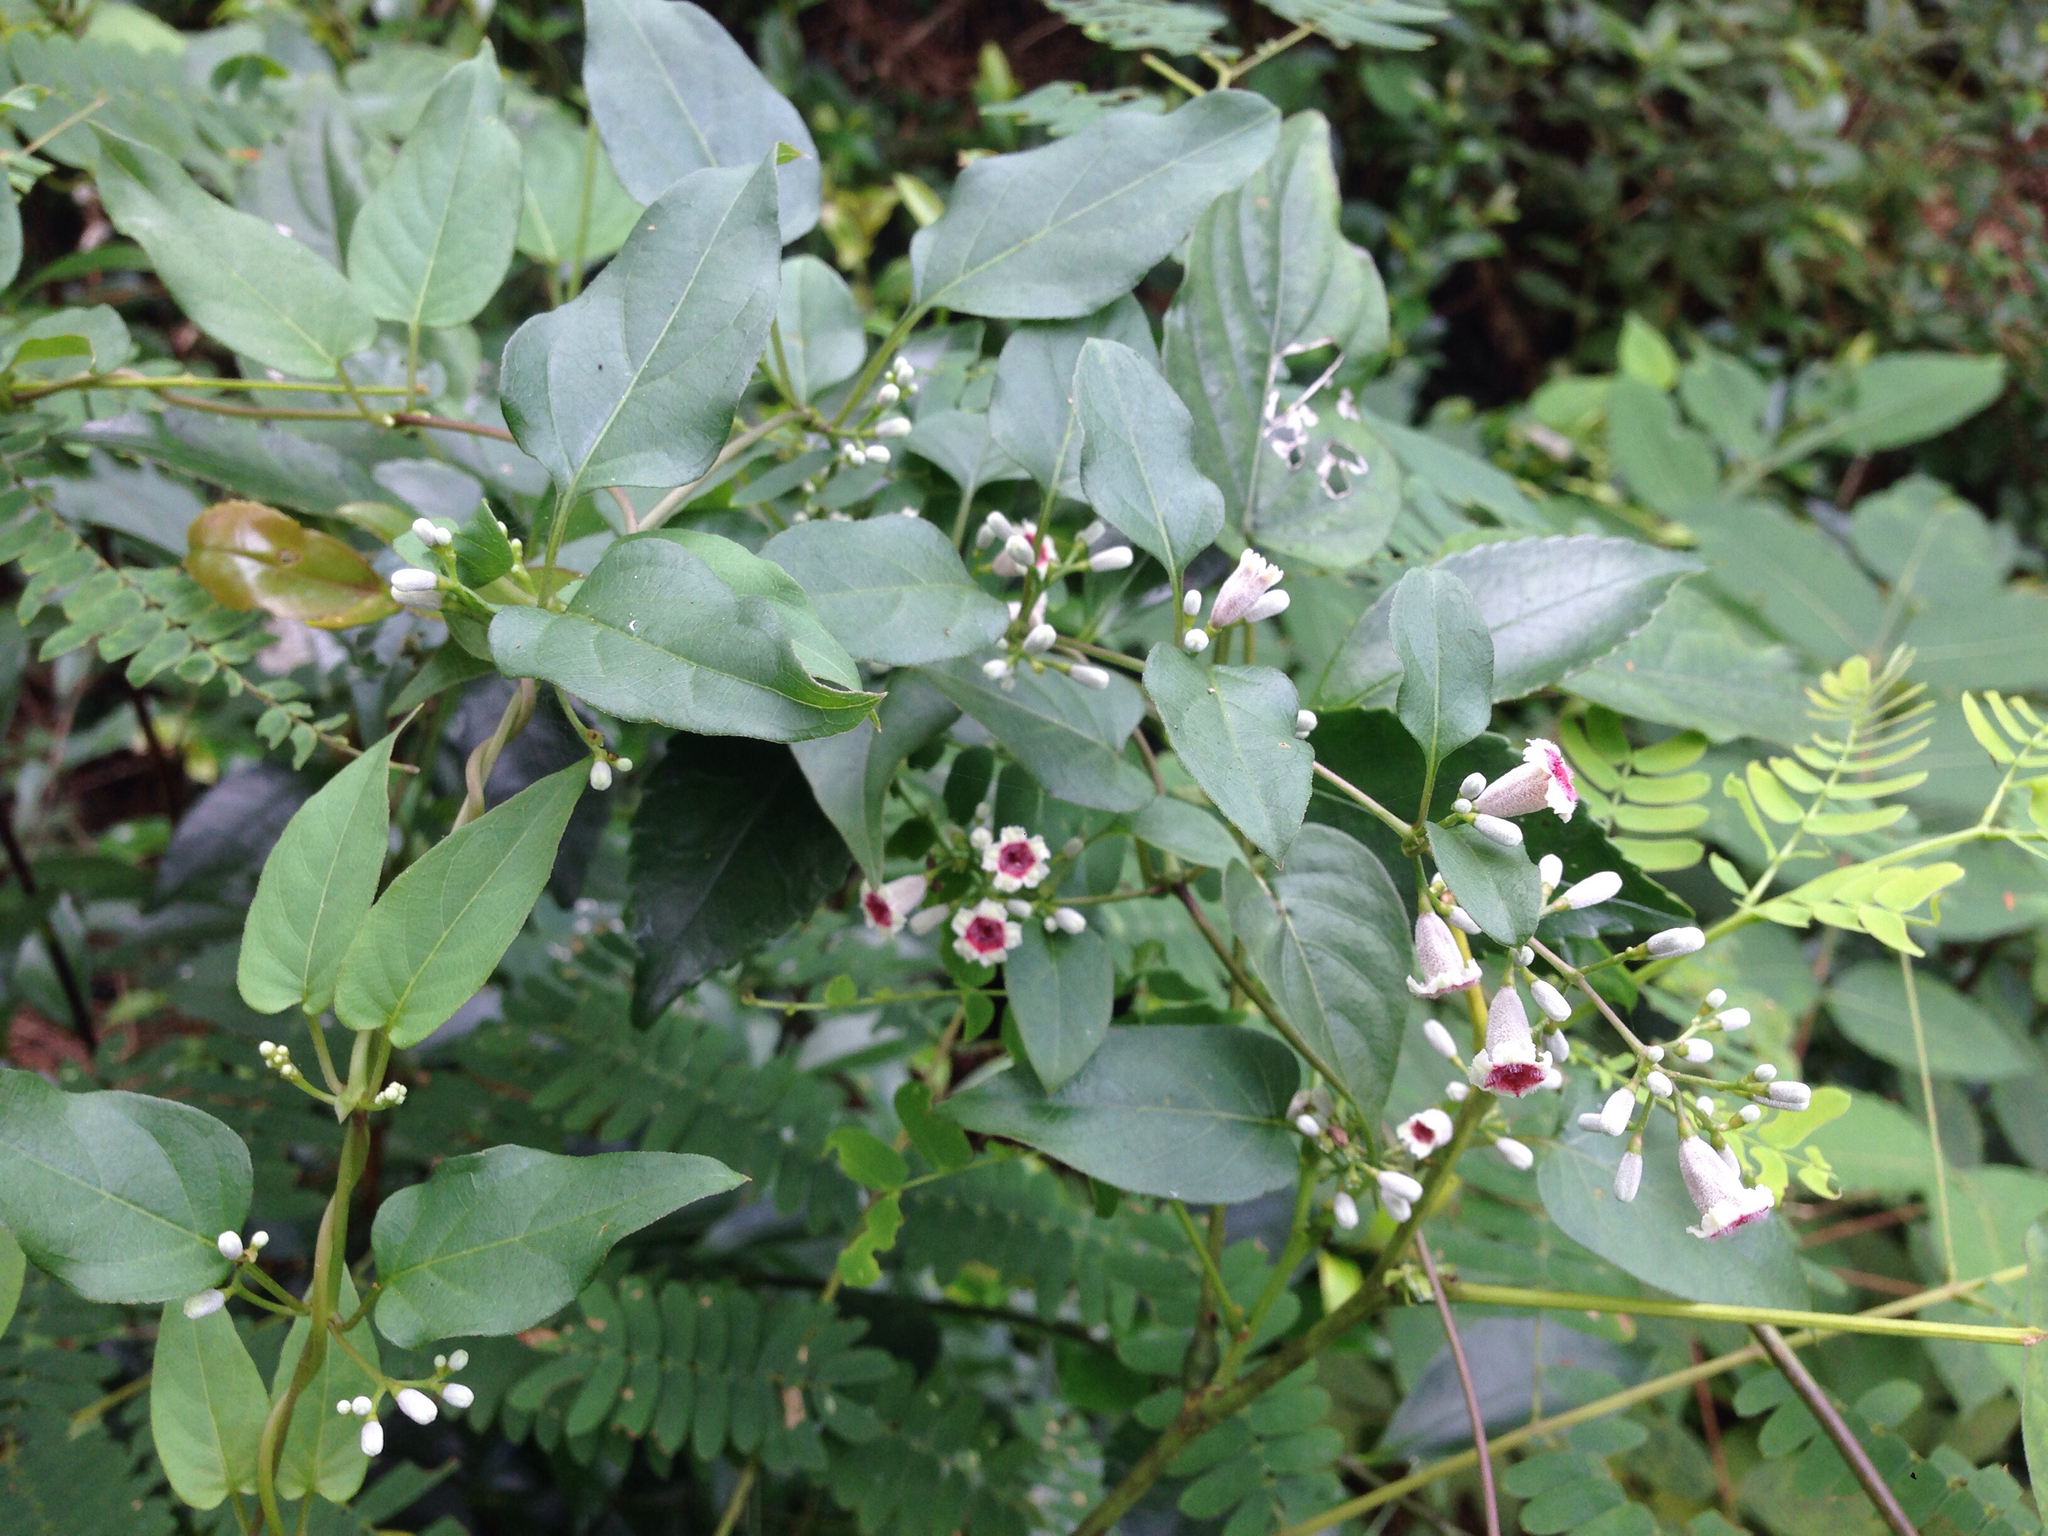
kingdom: Plantae
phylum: Tracheophyta
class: Magnoliopsida
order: Gentianales
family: Rubiaceae
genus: Paederia
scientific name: Paederia foetida
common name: Stinkvine
